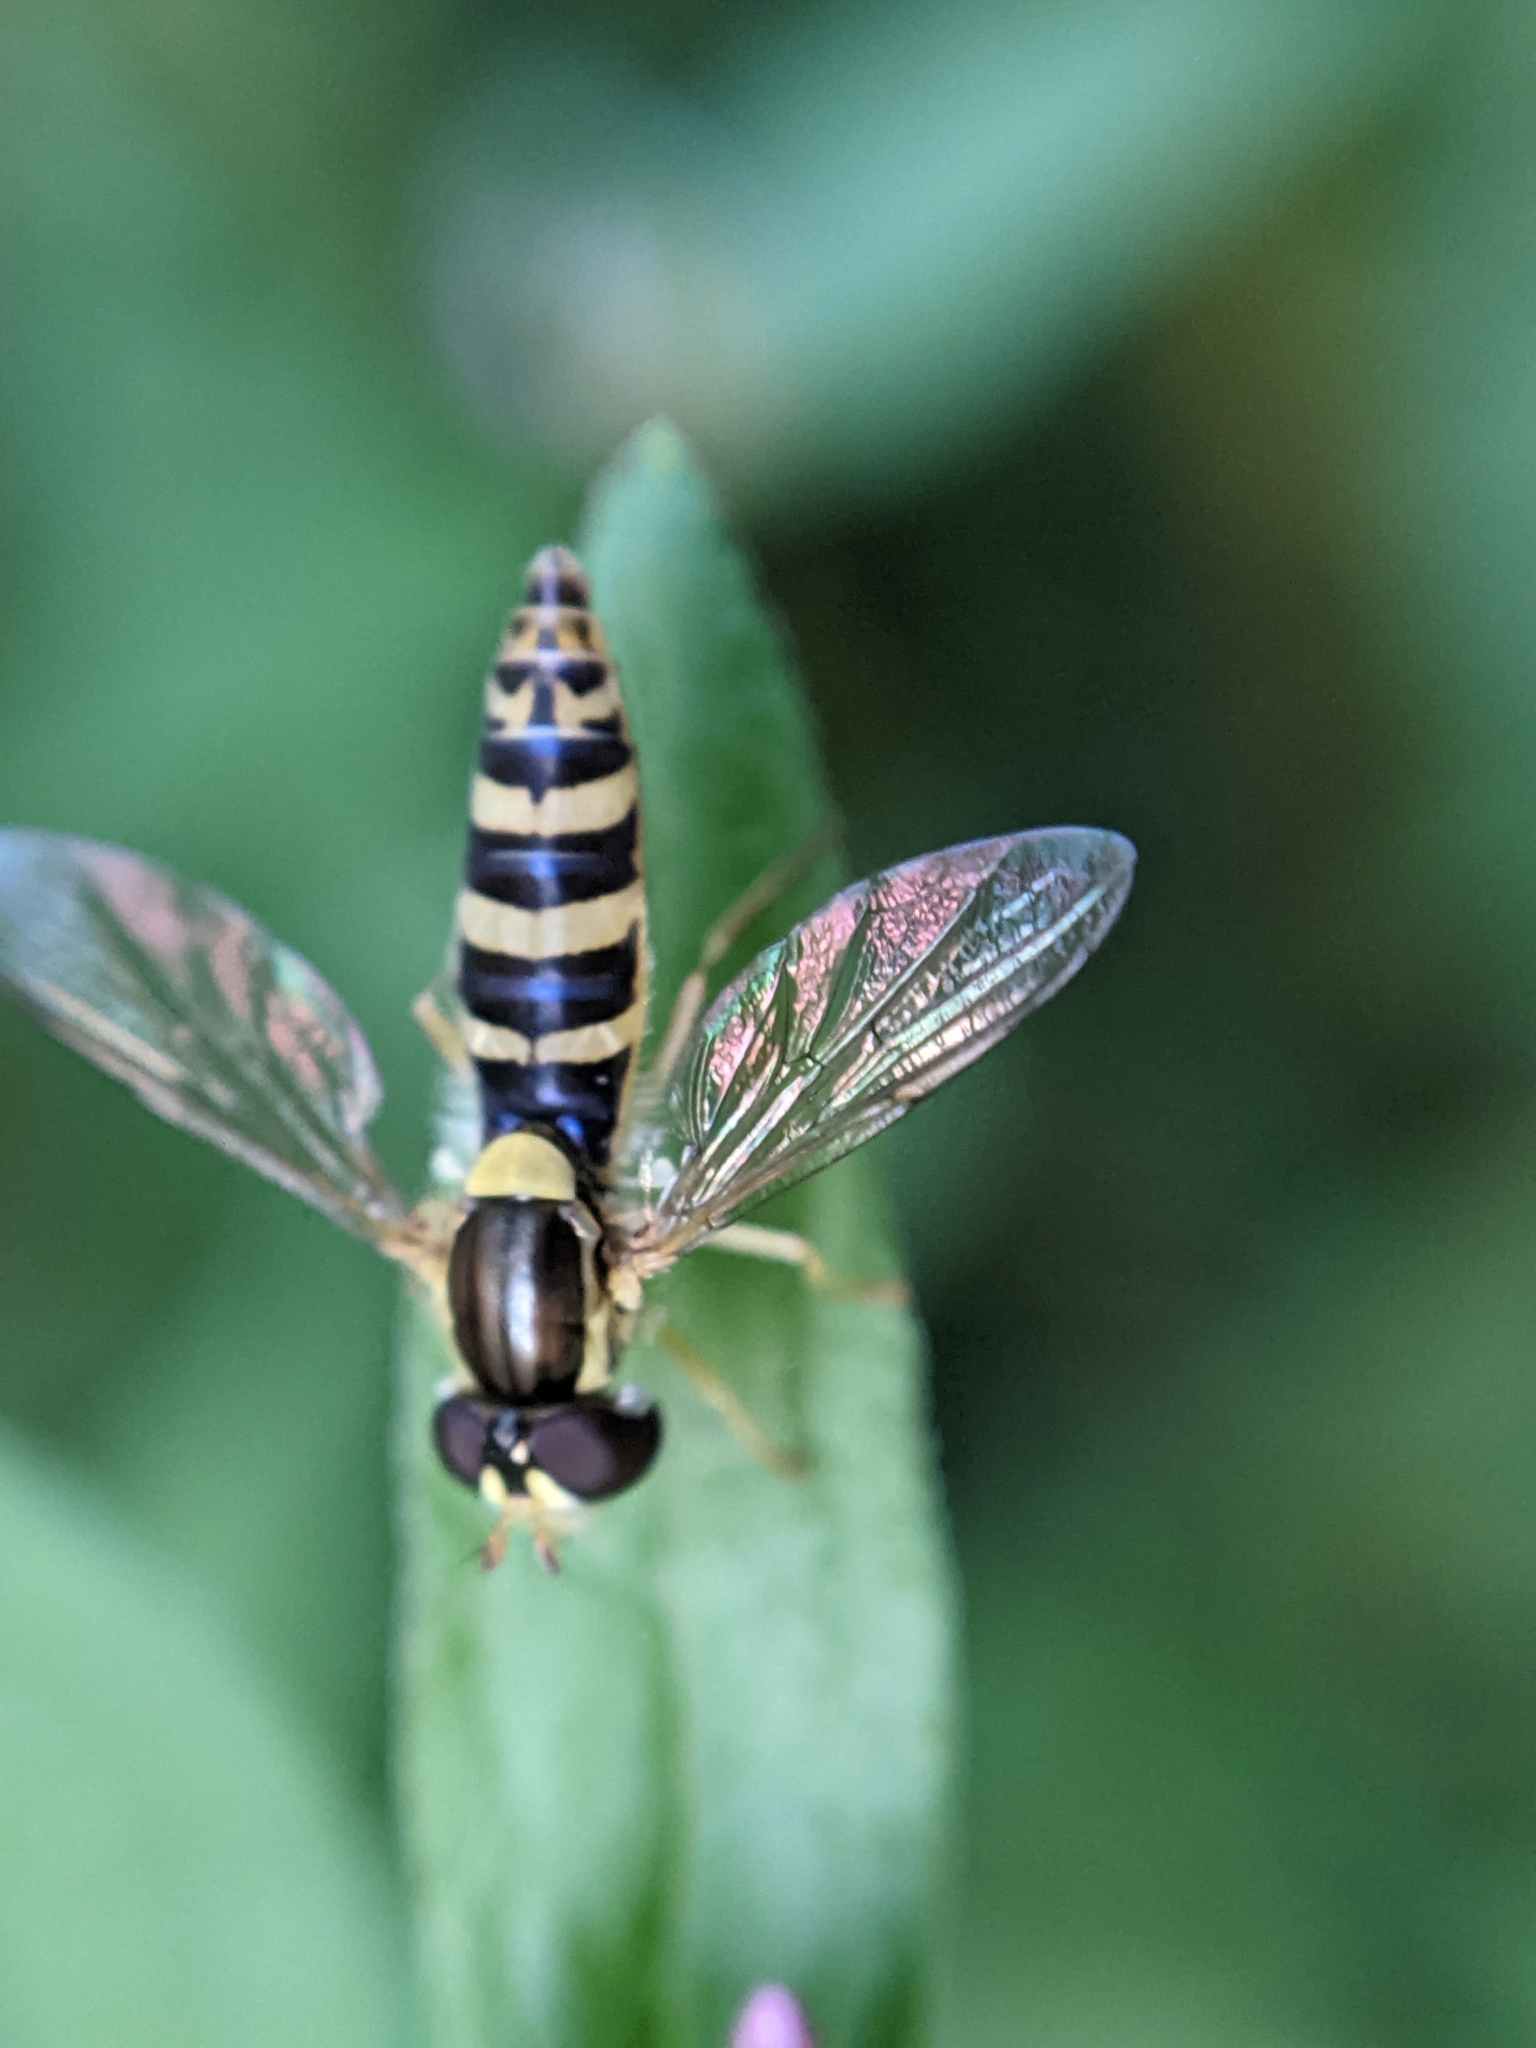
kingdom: Animalia
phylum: Arthropoda
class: Insecta
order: Diptera
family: Syrphidae
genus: Sphaerophoria
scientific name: Sphaerophoria
